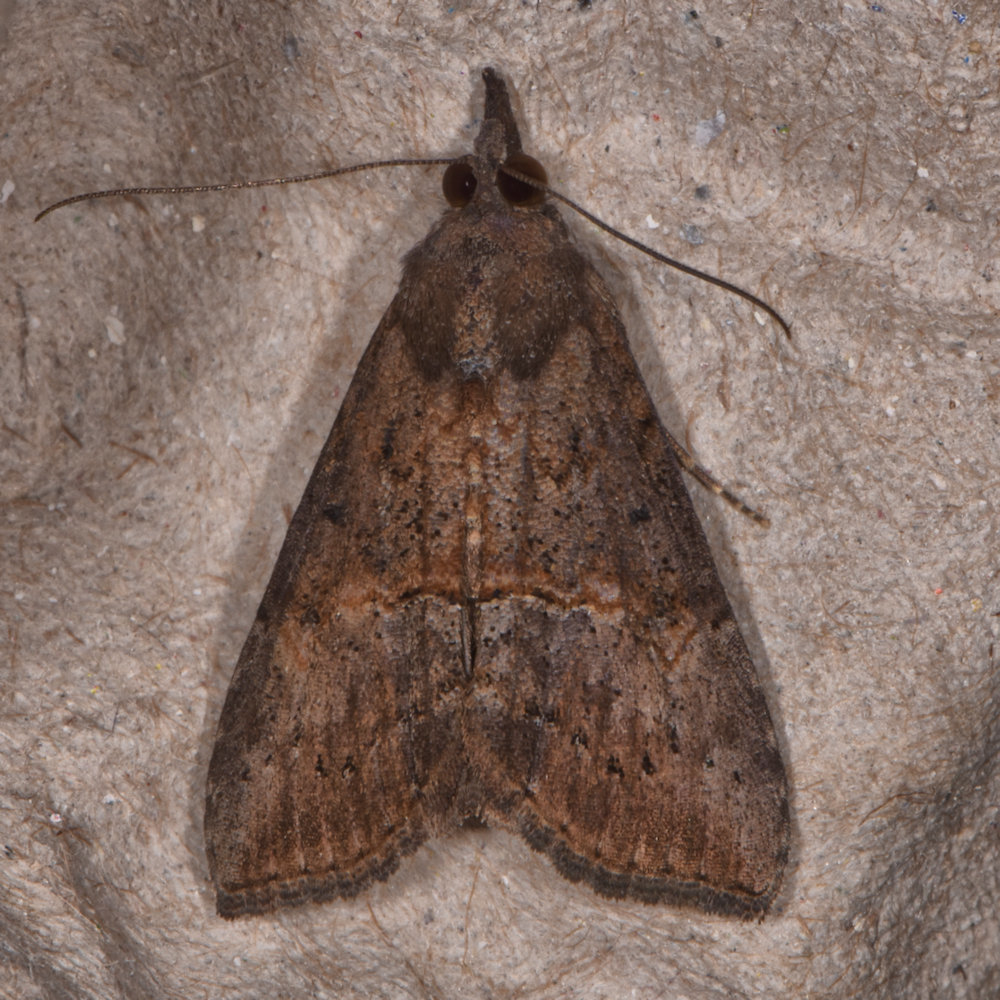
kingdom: Animalia
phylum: Arthropoda
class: Insecta
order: Lepidoptera
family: Erebidae
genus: Hypena
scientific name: Hypena scabra
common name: Green cloverworm
